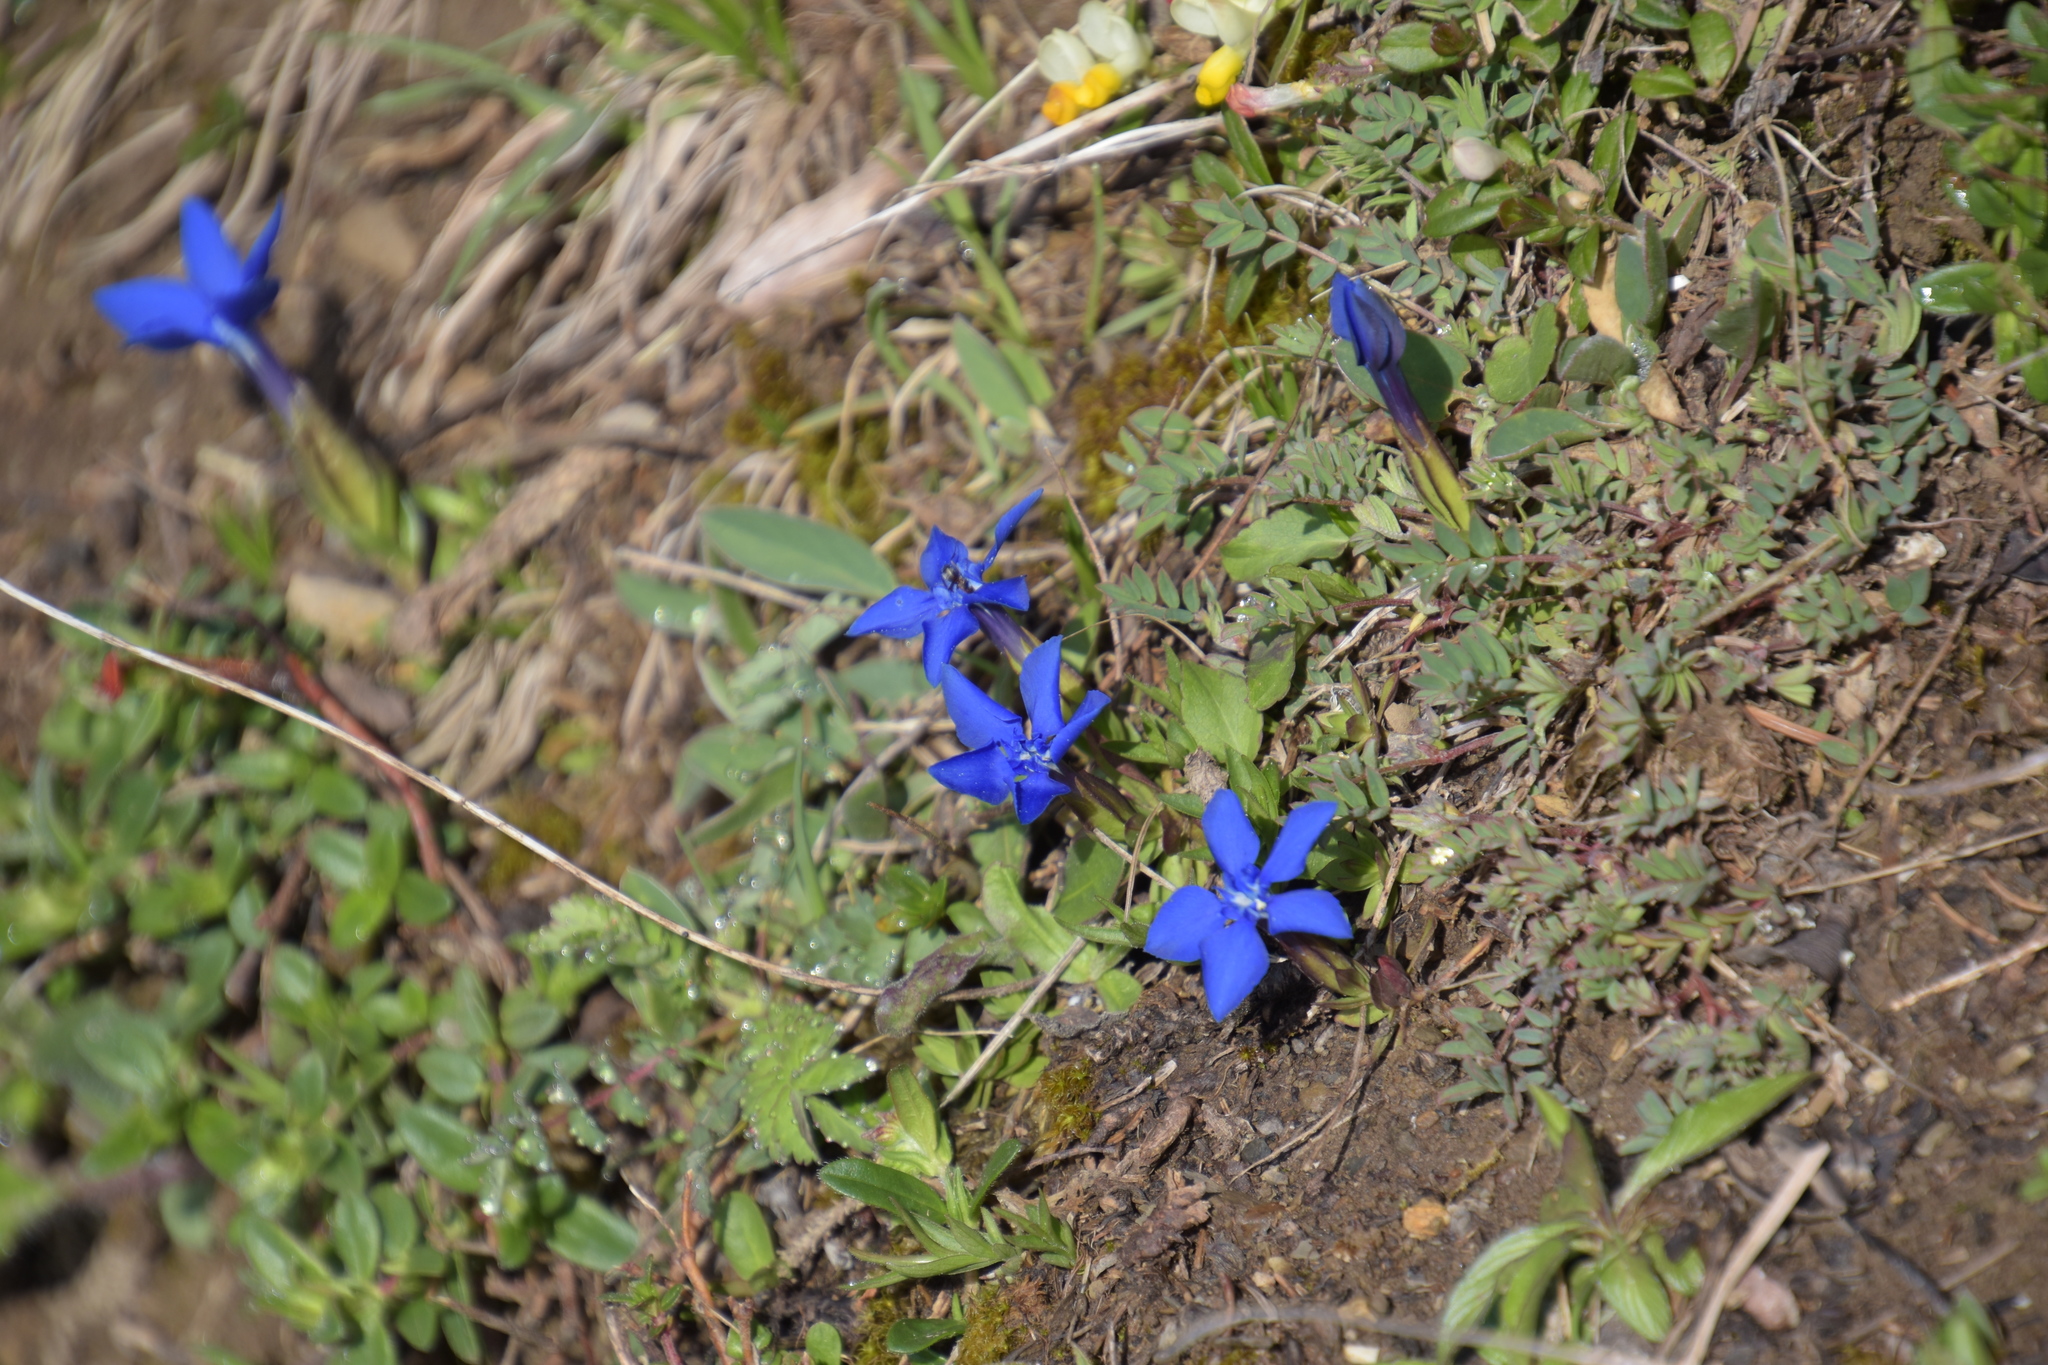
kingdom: Plantae
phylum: Tracheophyta
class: Magnoliopsida
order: Gentianales
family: Gentianaceae
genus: Gentiana
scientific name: Gentiana verna
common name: Spring gentian
